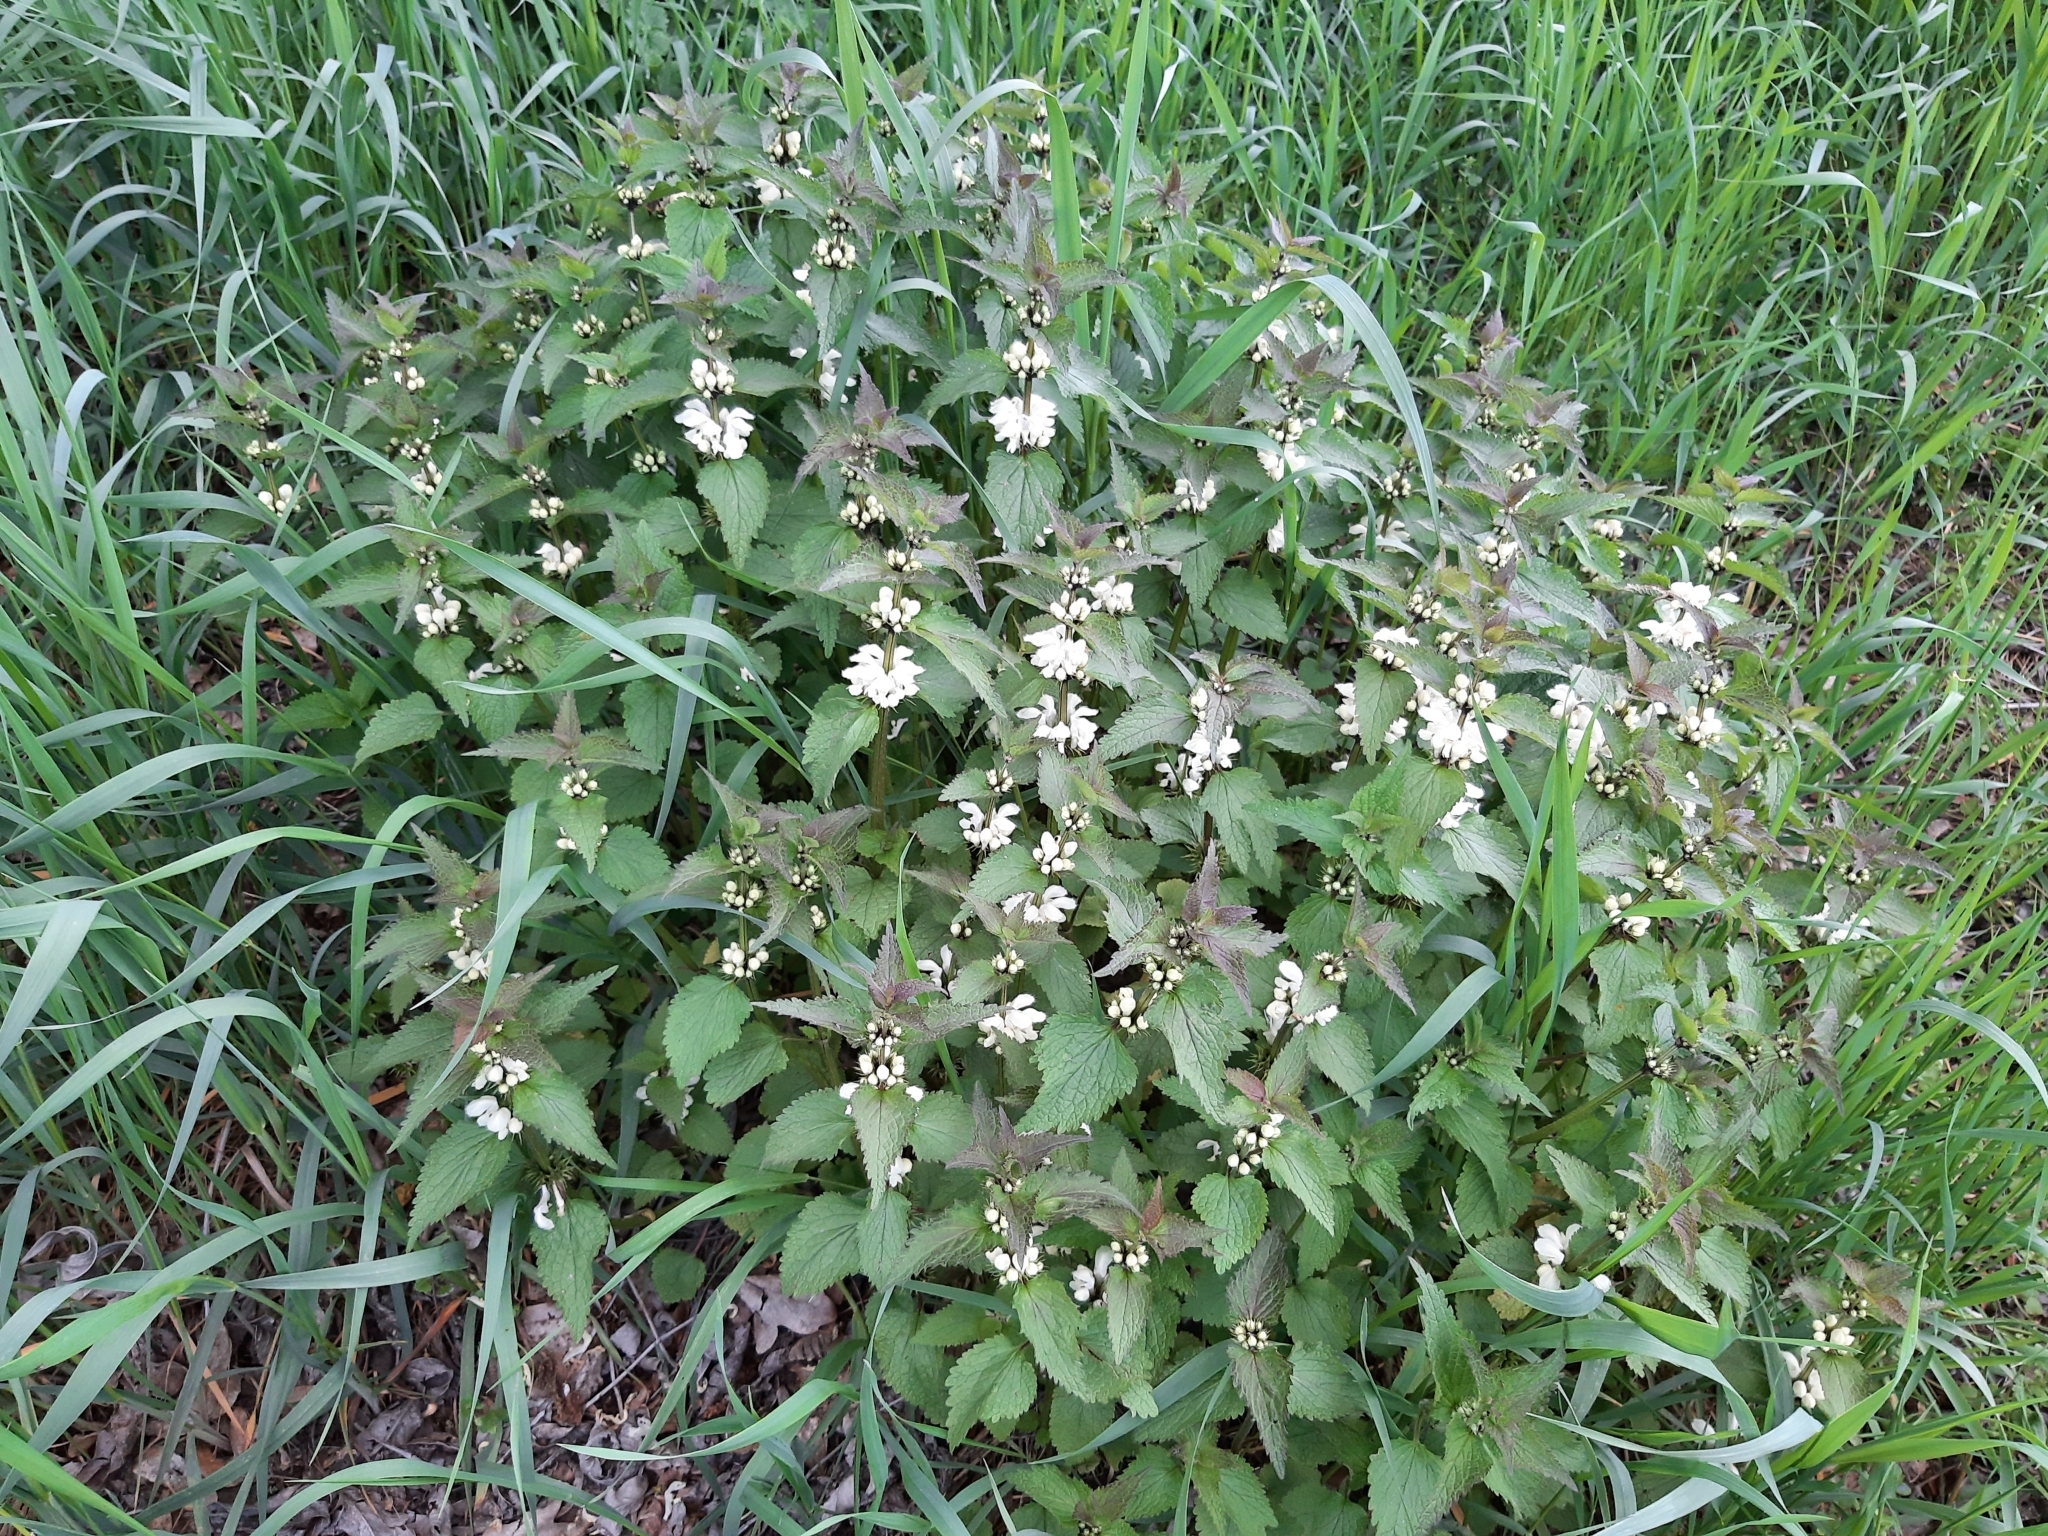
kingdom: Plantae
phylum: Tracheophyta
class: Magnoliopsida
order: Lamiales
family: Lamiaceae
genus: Lamium
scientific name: Lamium album
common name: White dead-nettle
